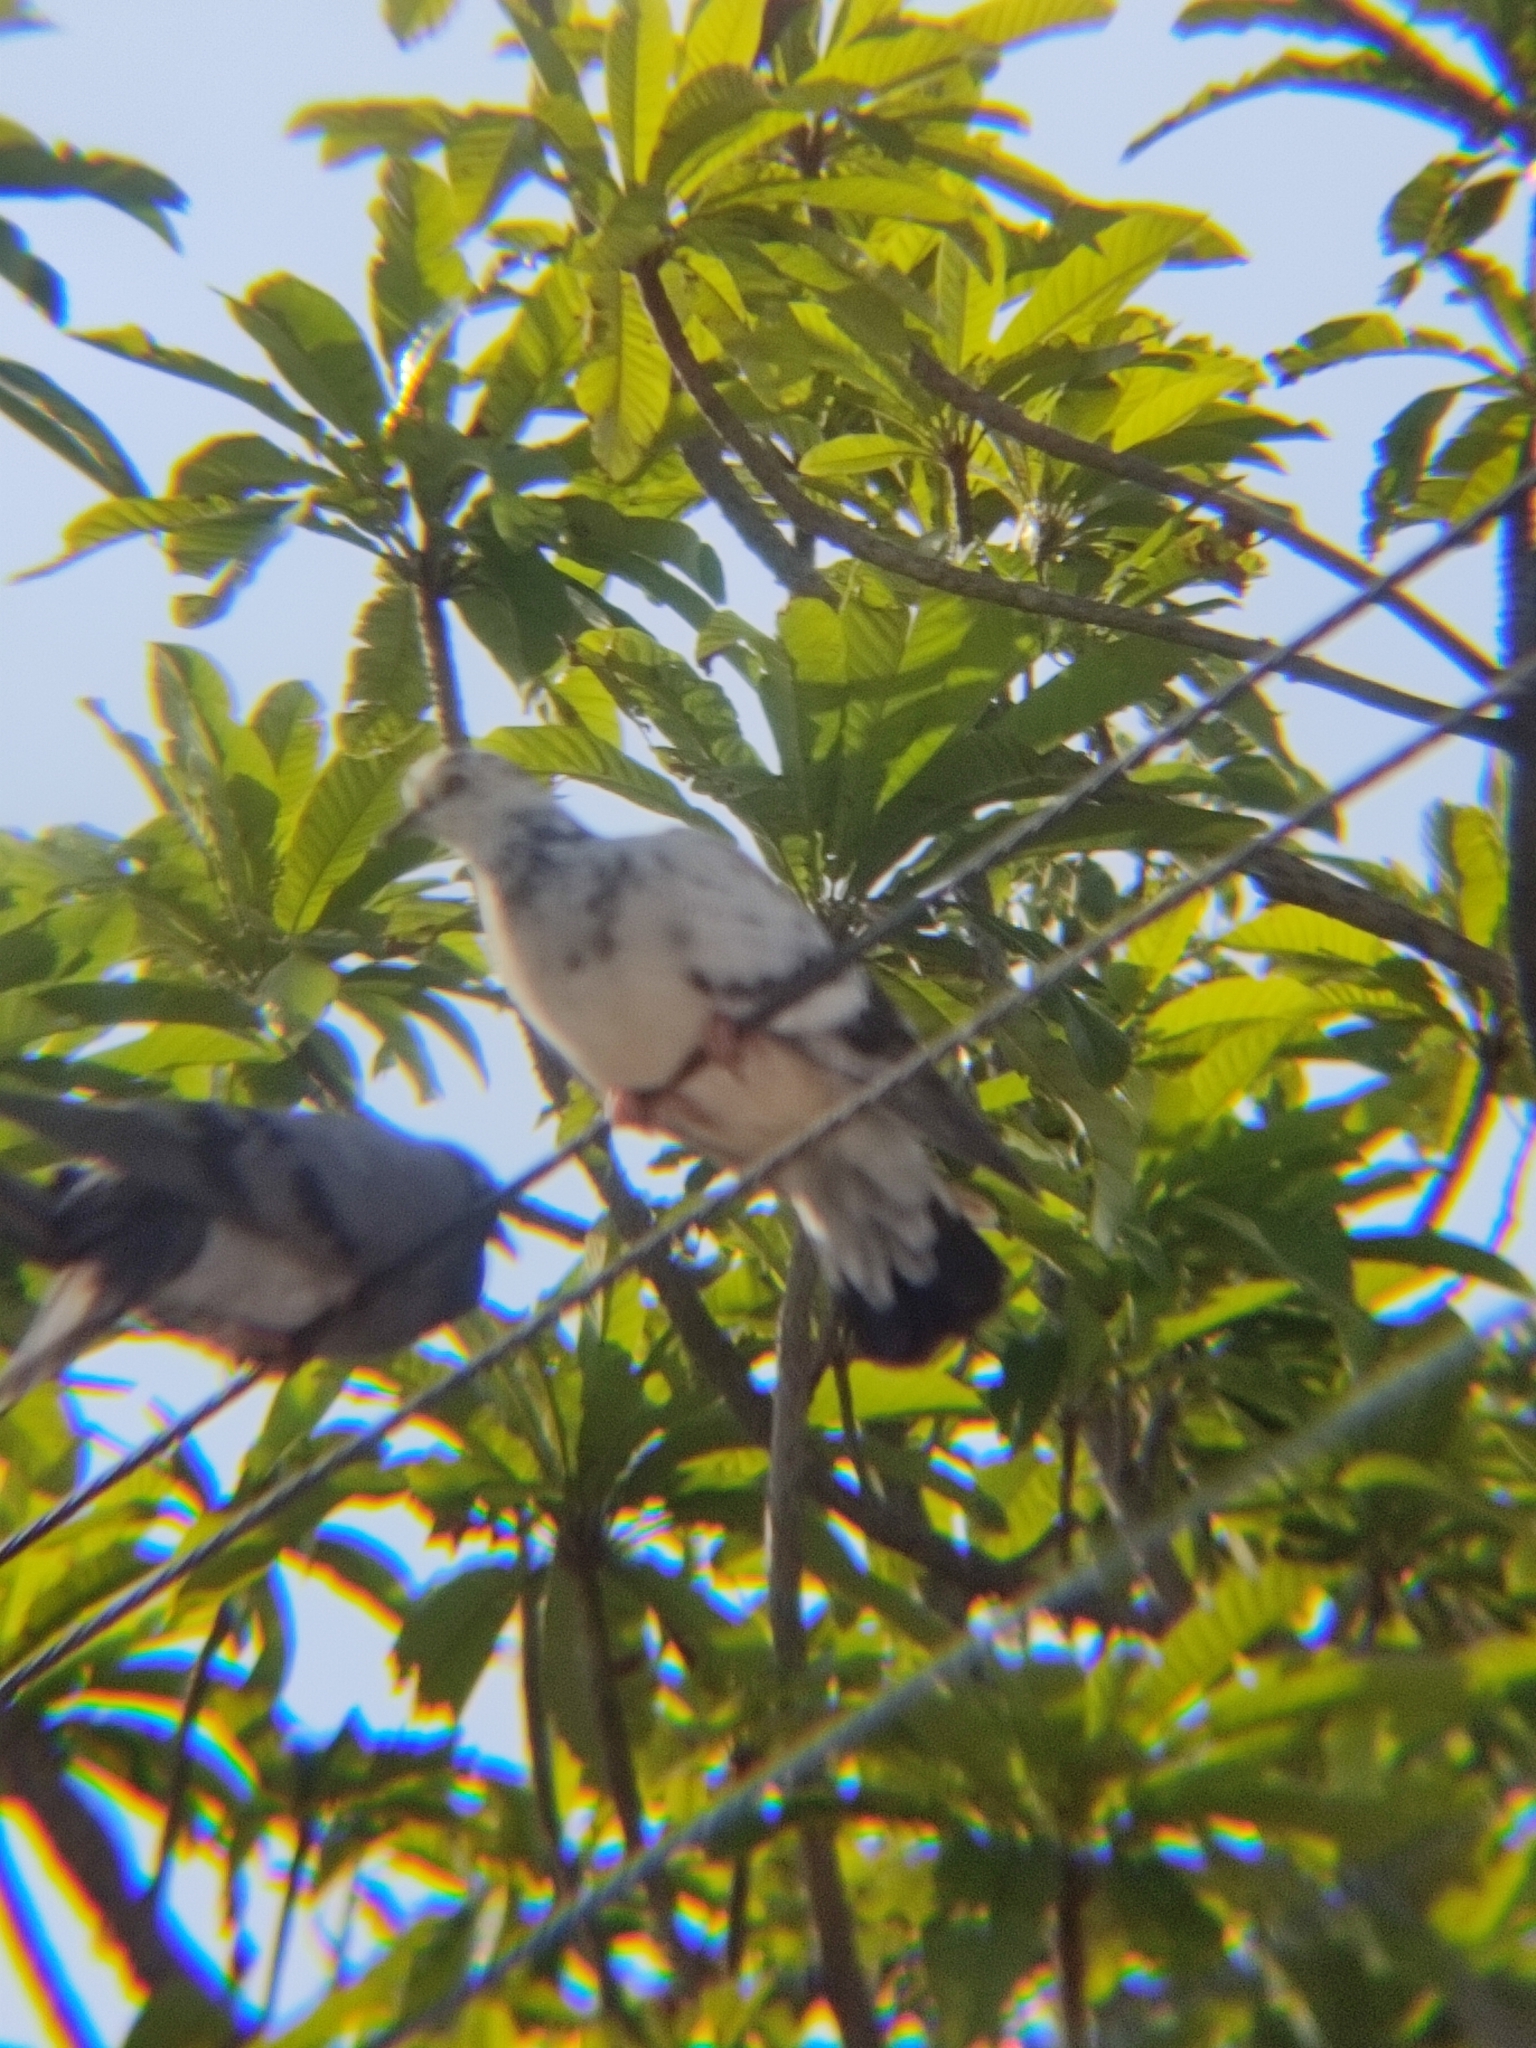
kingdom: Animalia
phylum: Chordata
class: Aves
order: Columbiformes
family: Columbidae
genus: Columba
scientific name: Columba livia
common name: Rock pigeon
